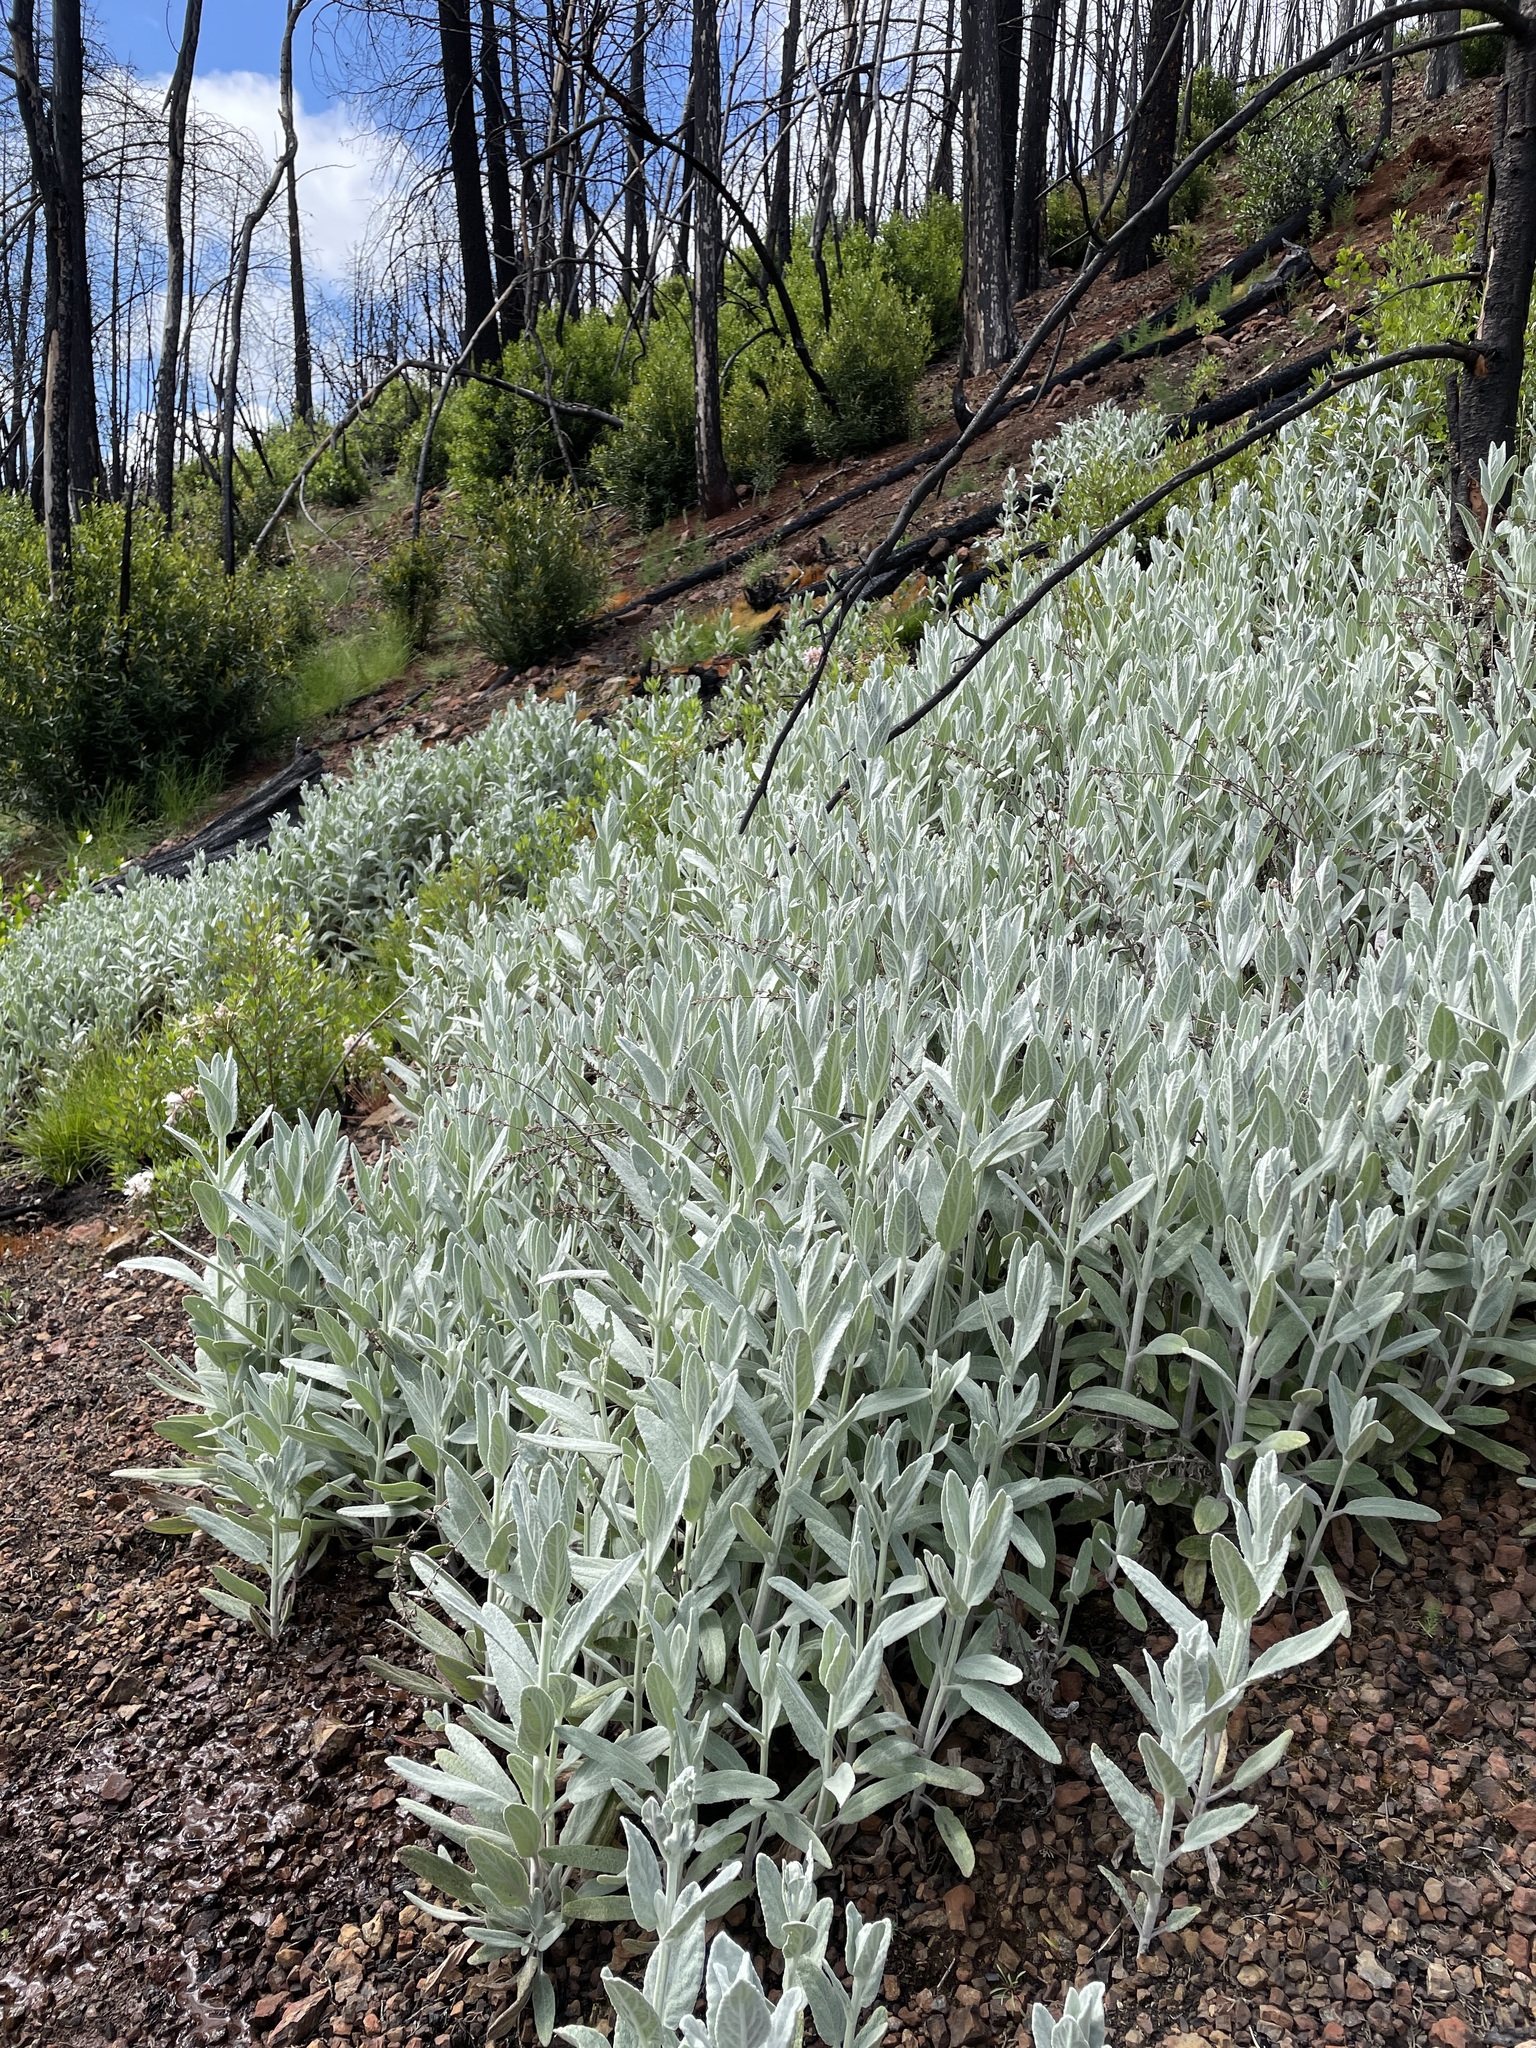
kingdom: Plantae
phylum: Tracheophyta
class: Magnoliopsida
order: Lamiales
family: Lamiaceae
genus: Stachys
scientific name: Stachys albens
